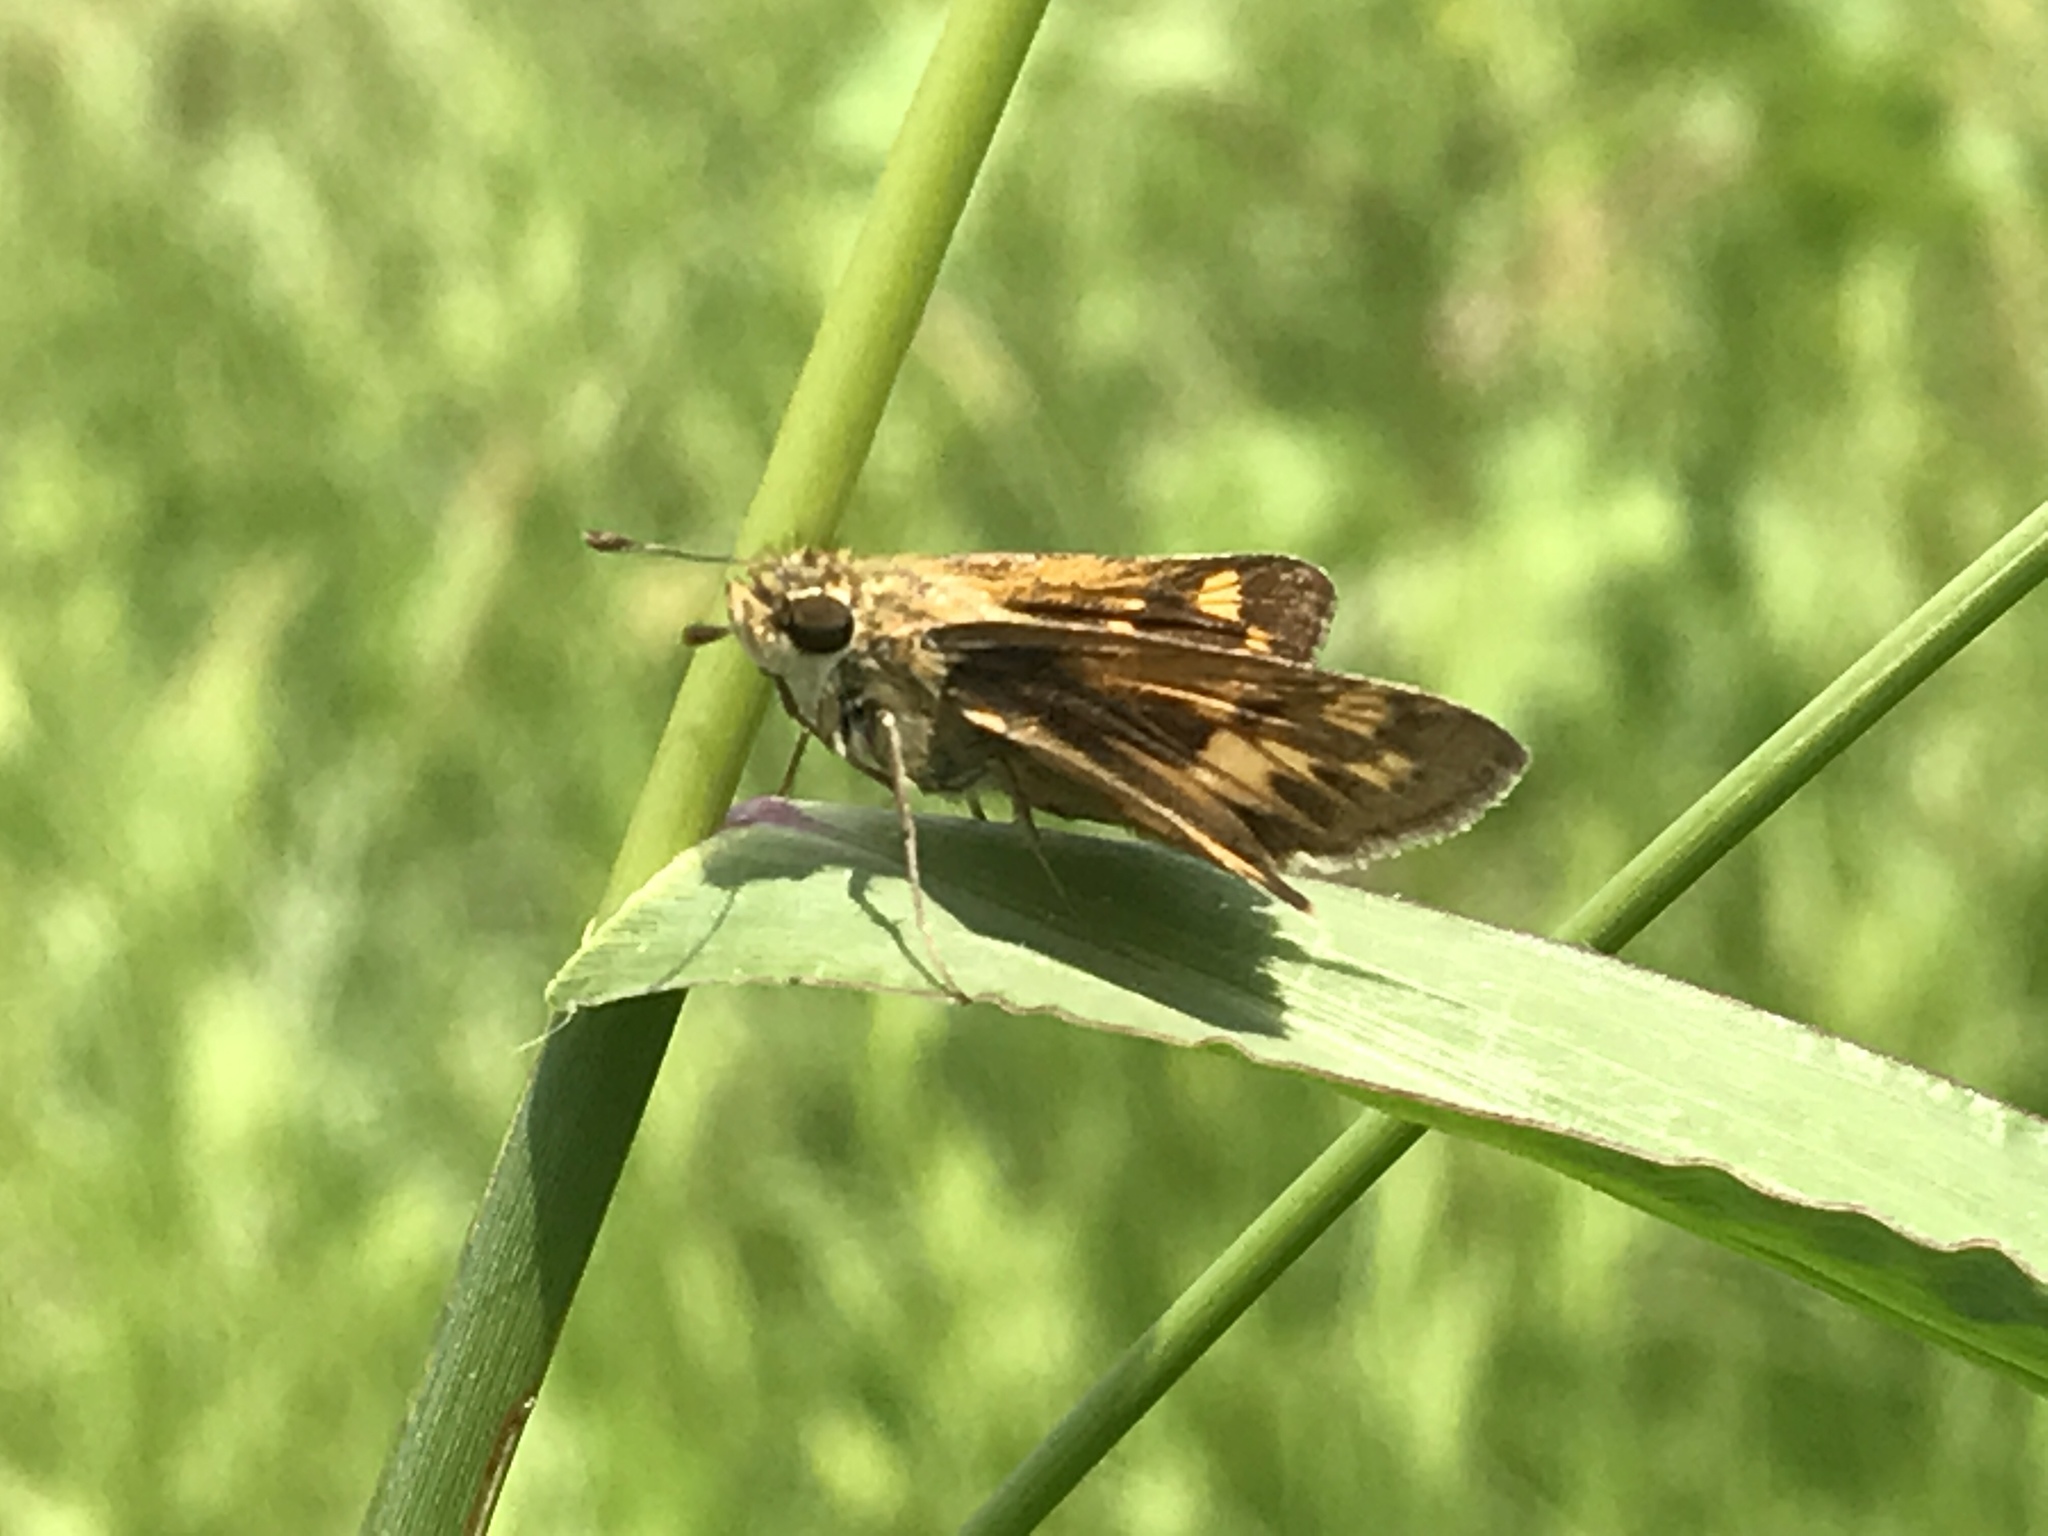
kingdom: Animalia
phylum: Arthropoda
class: Insecta
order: Lepidoptera
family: Hesperiidae
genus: Hylephila
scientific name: Hylephila phyleus
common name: Fiery skipper
